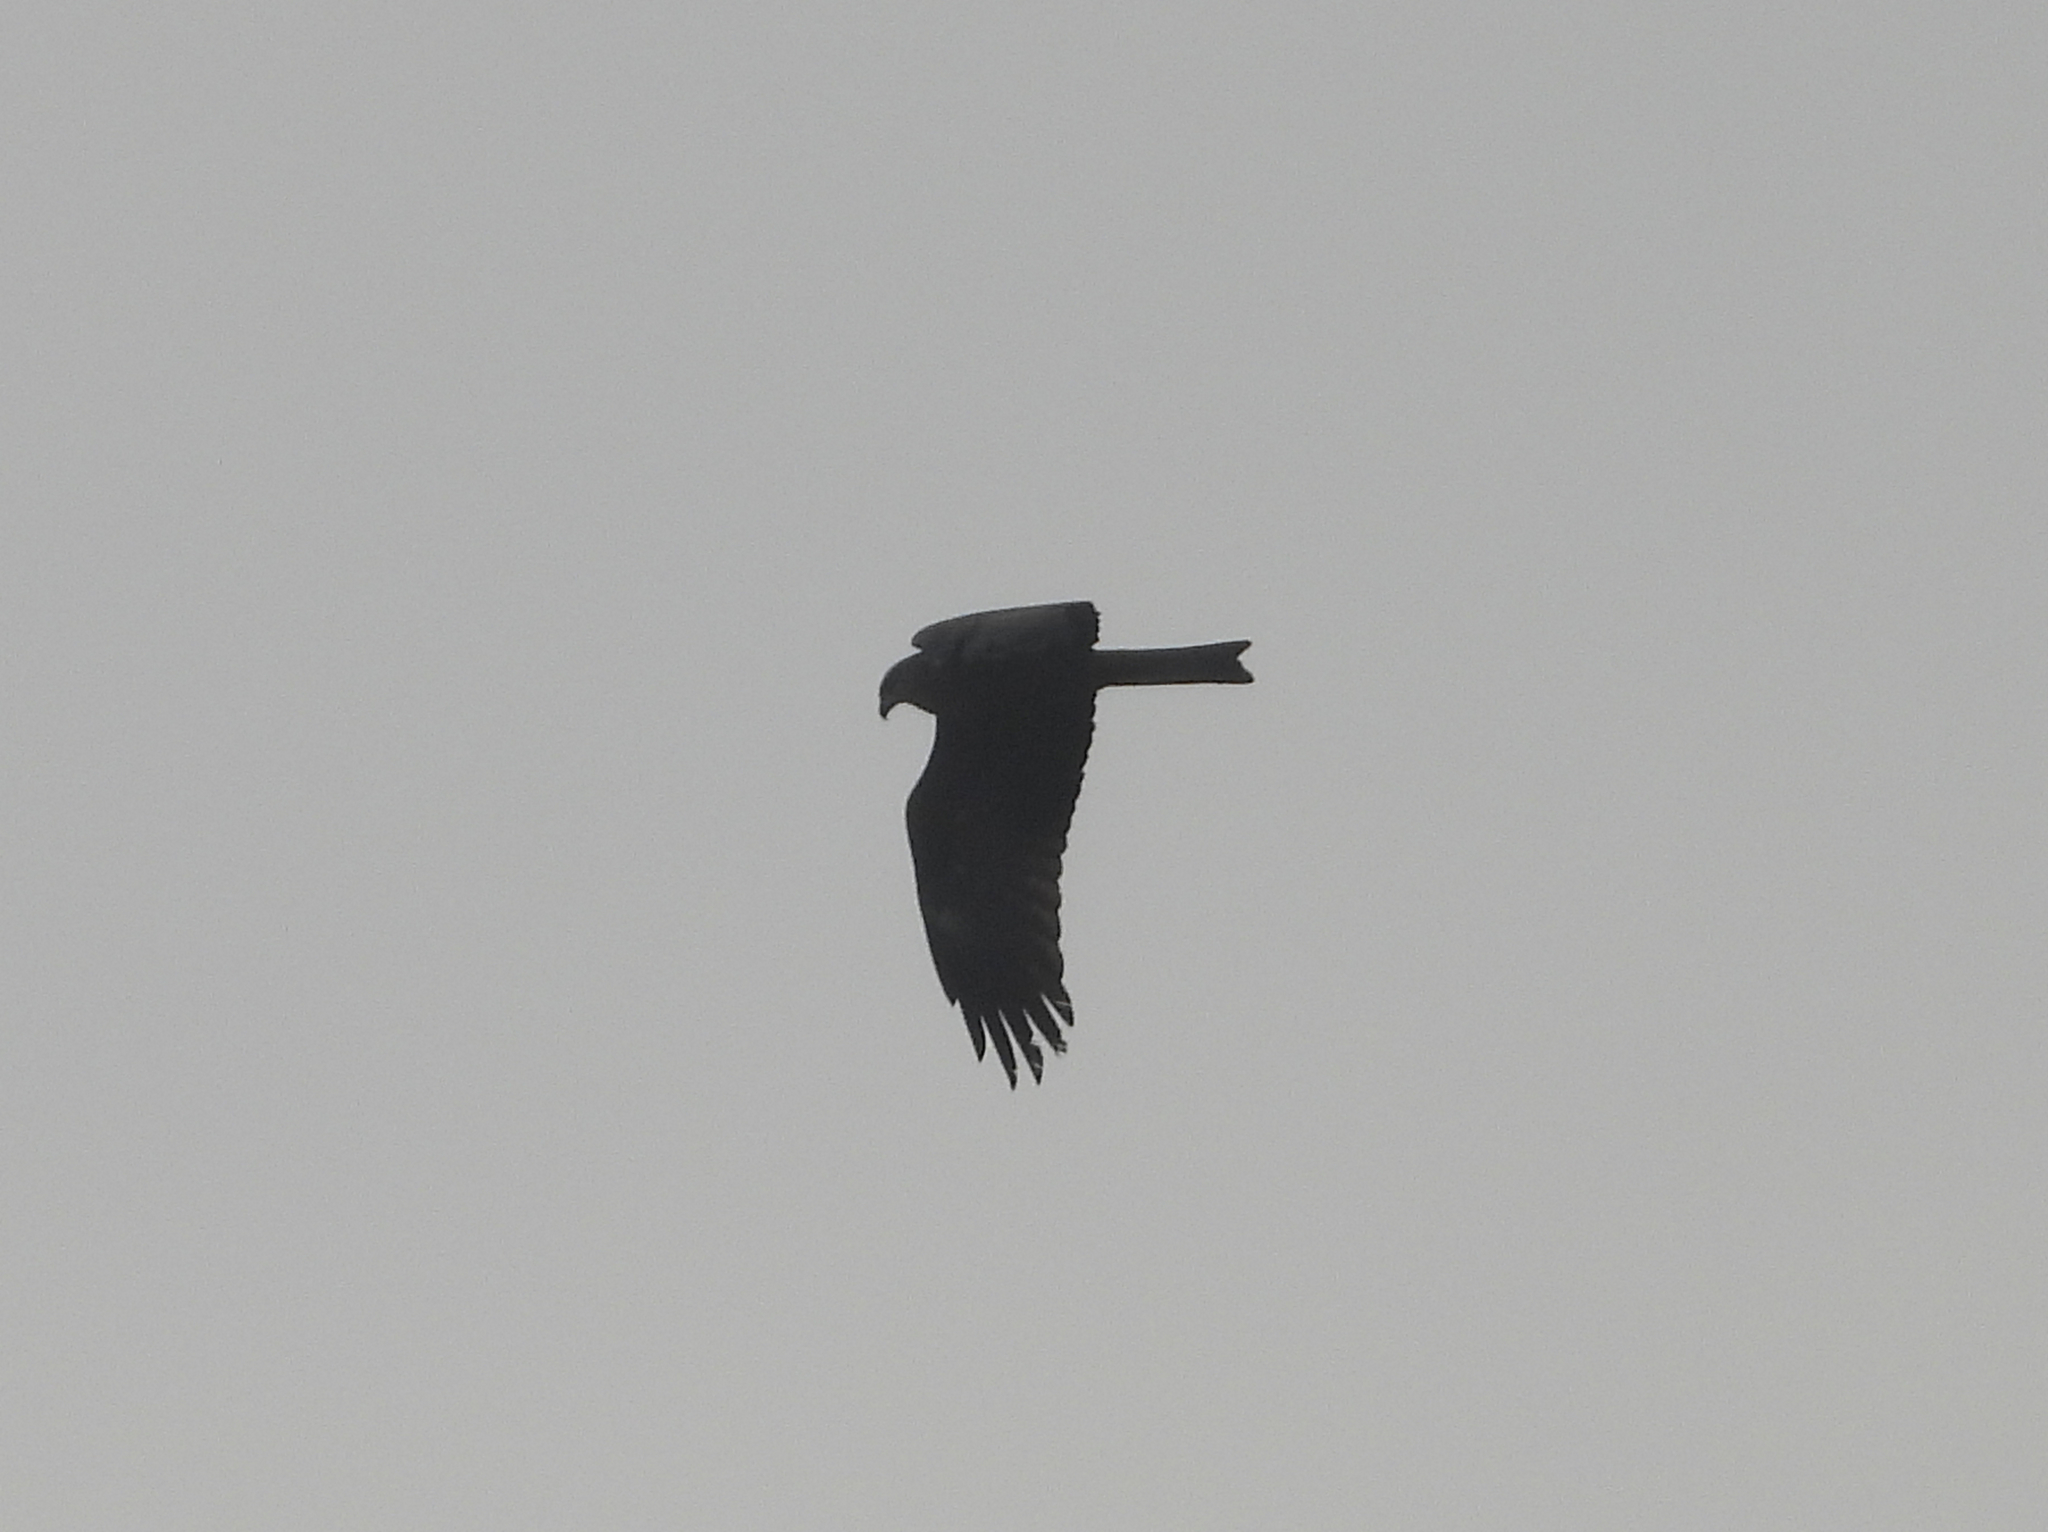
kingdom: Animalia
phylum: Chordata
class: Aves
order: Accipitriformes
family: Accipitridae
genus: Milvus
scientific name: Milvus migrans
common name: Black kite
